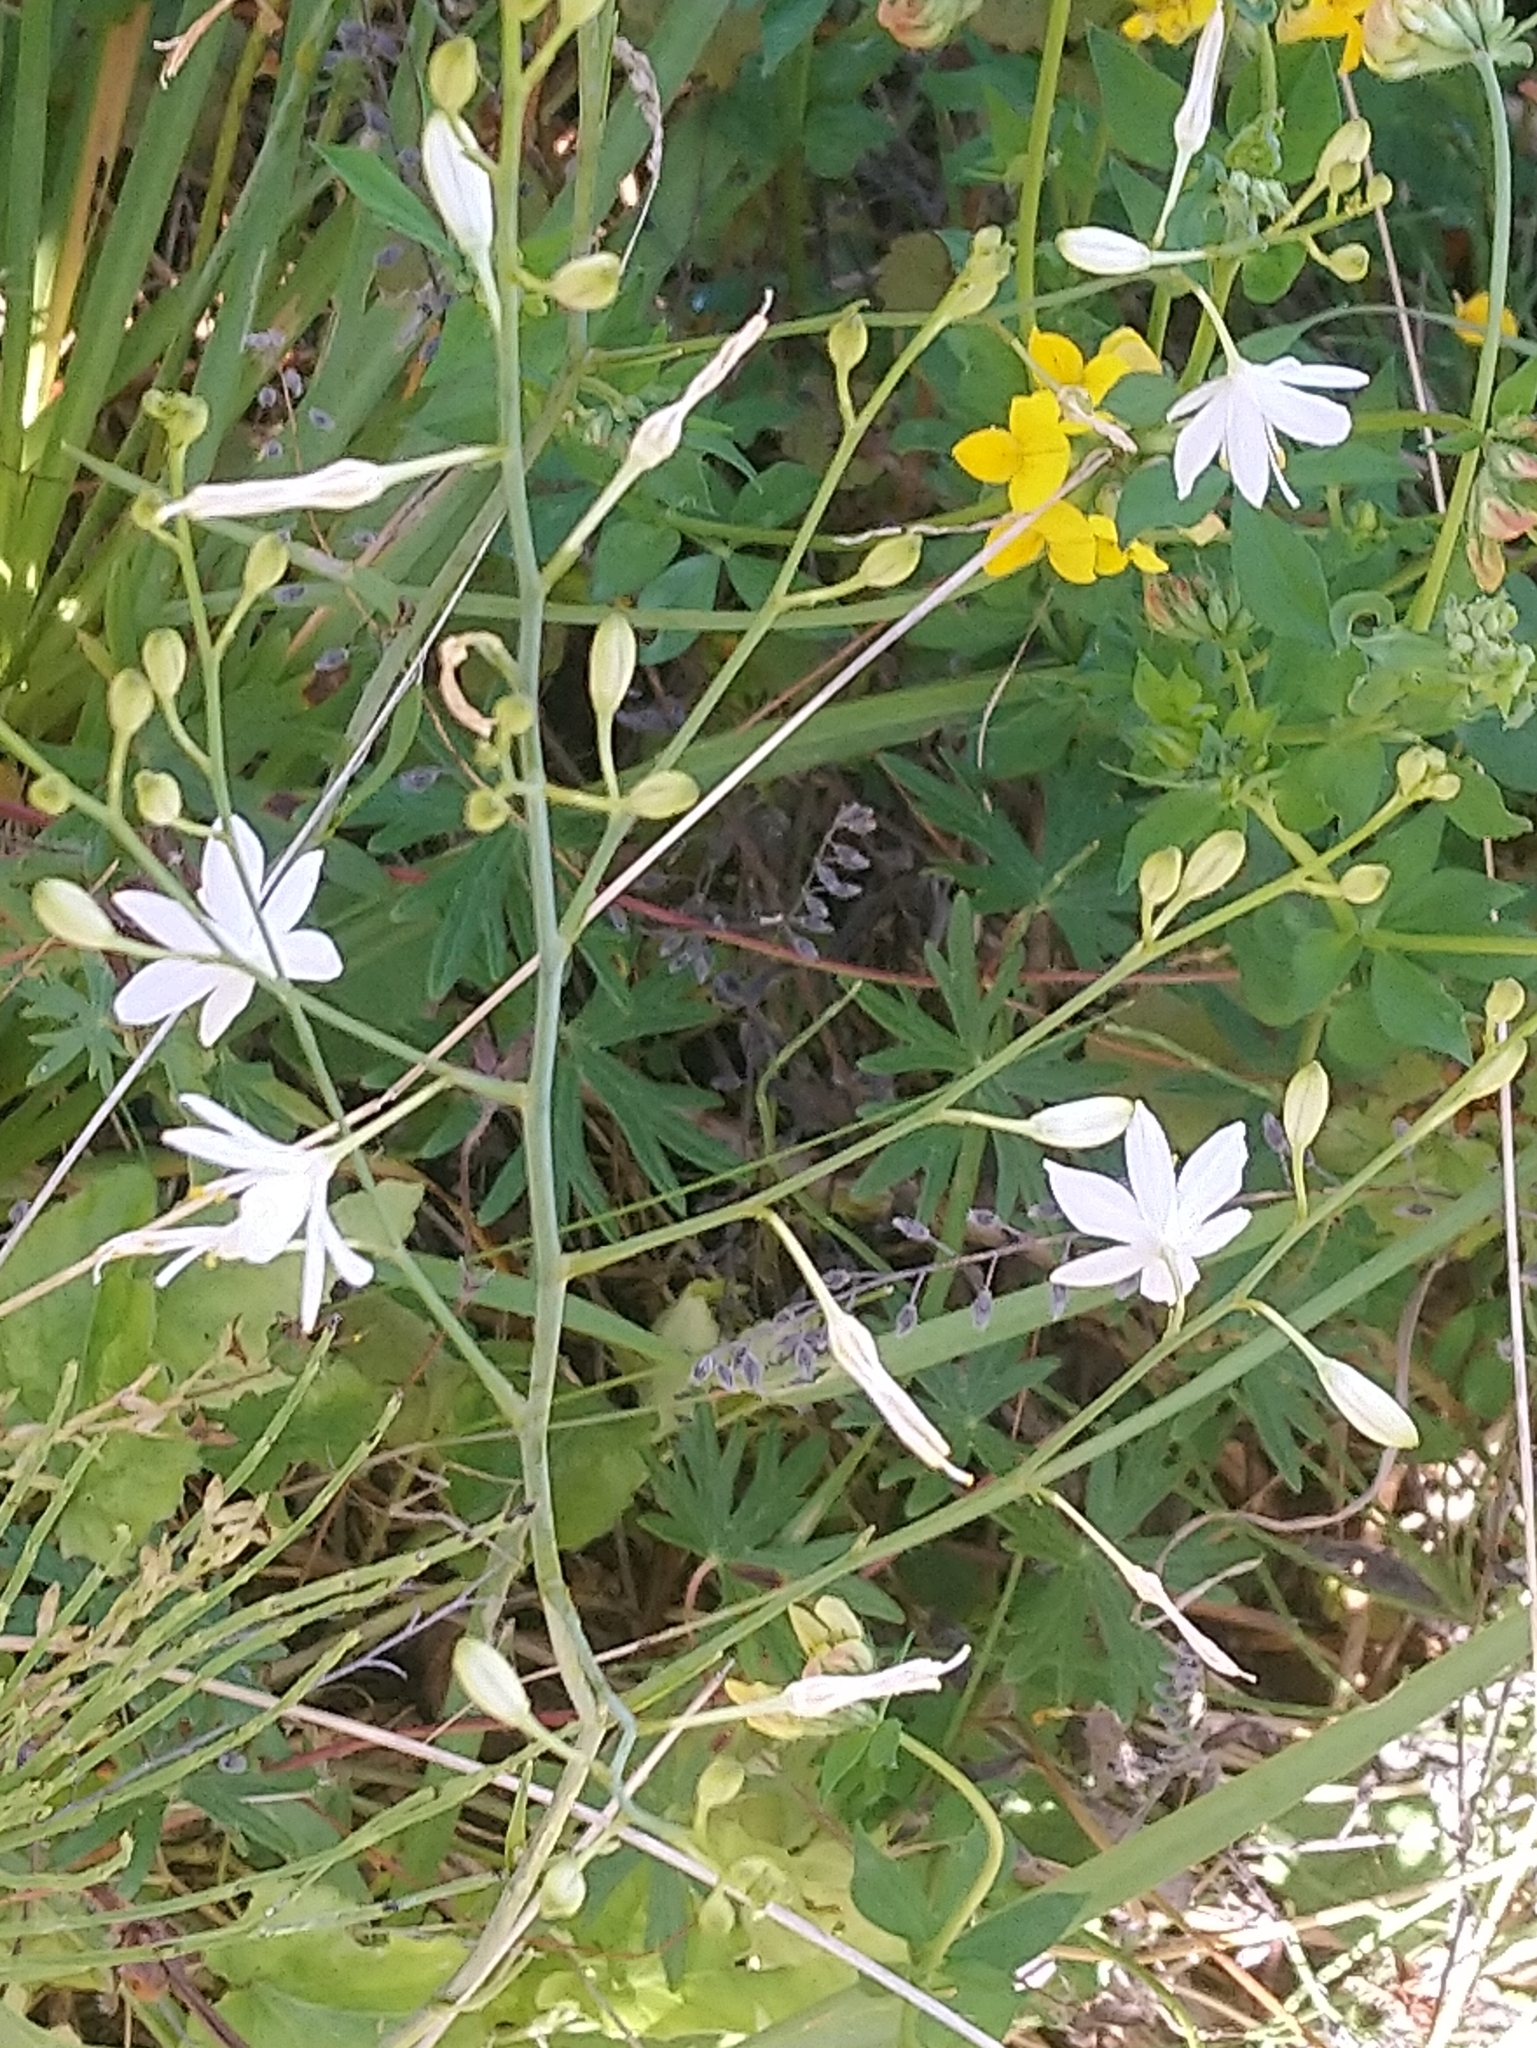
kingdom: Plantae
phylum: Tracheophyta
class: Liliopsida
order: Asparagales
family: Asparagaceae
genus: Anthericum
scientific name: Anthericum ramosum
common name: Branched st. bernard's-lily
